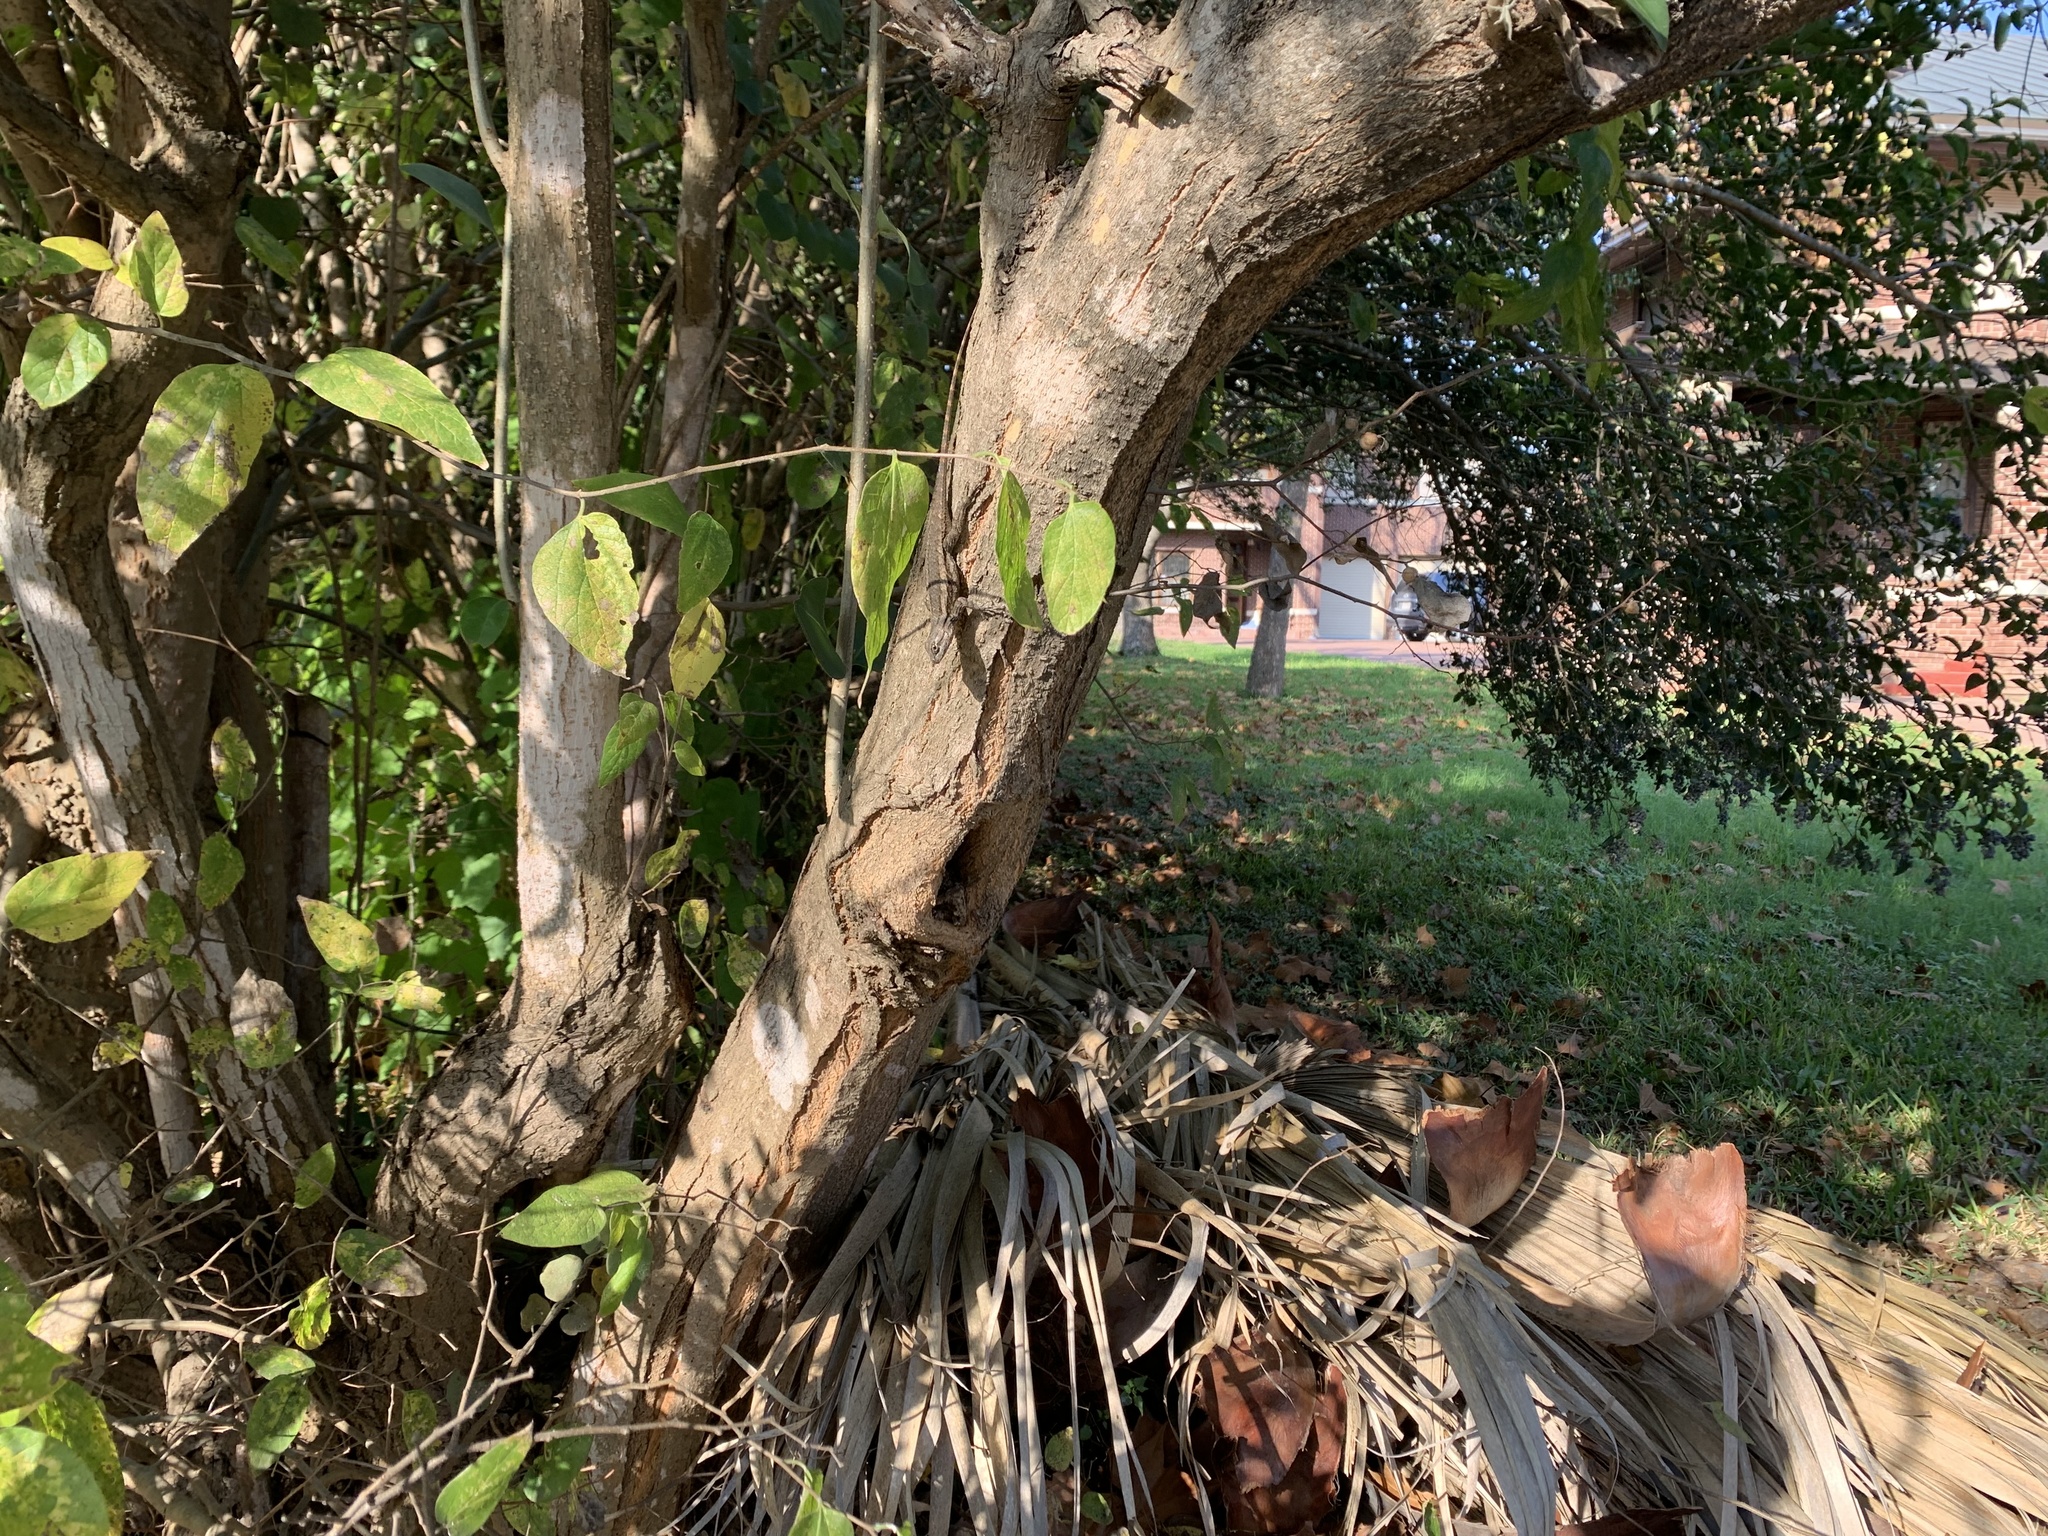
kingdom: Animalia
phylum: Chordata
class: Squamata
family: Phrynosomatidae
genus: Sceloporus
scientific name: Sceloporus olivaceus
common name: Texas spiny lizard
